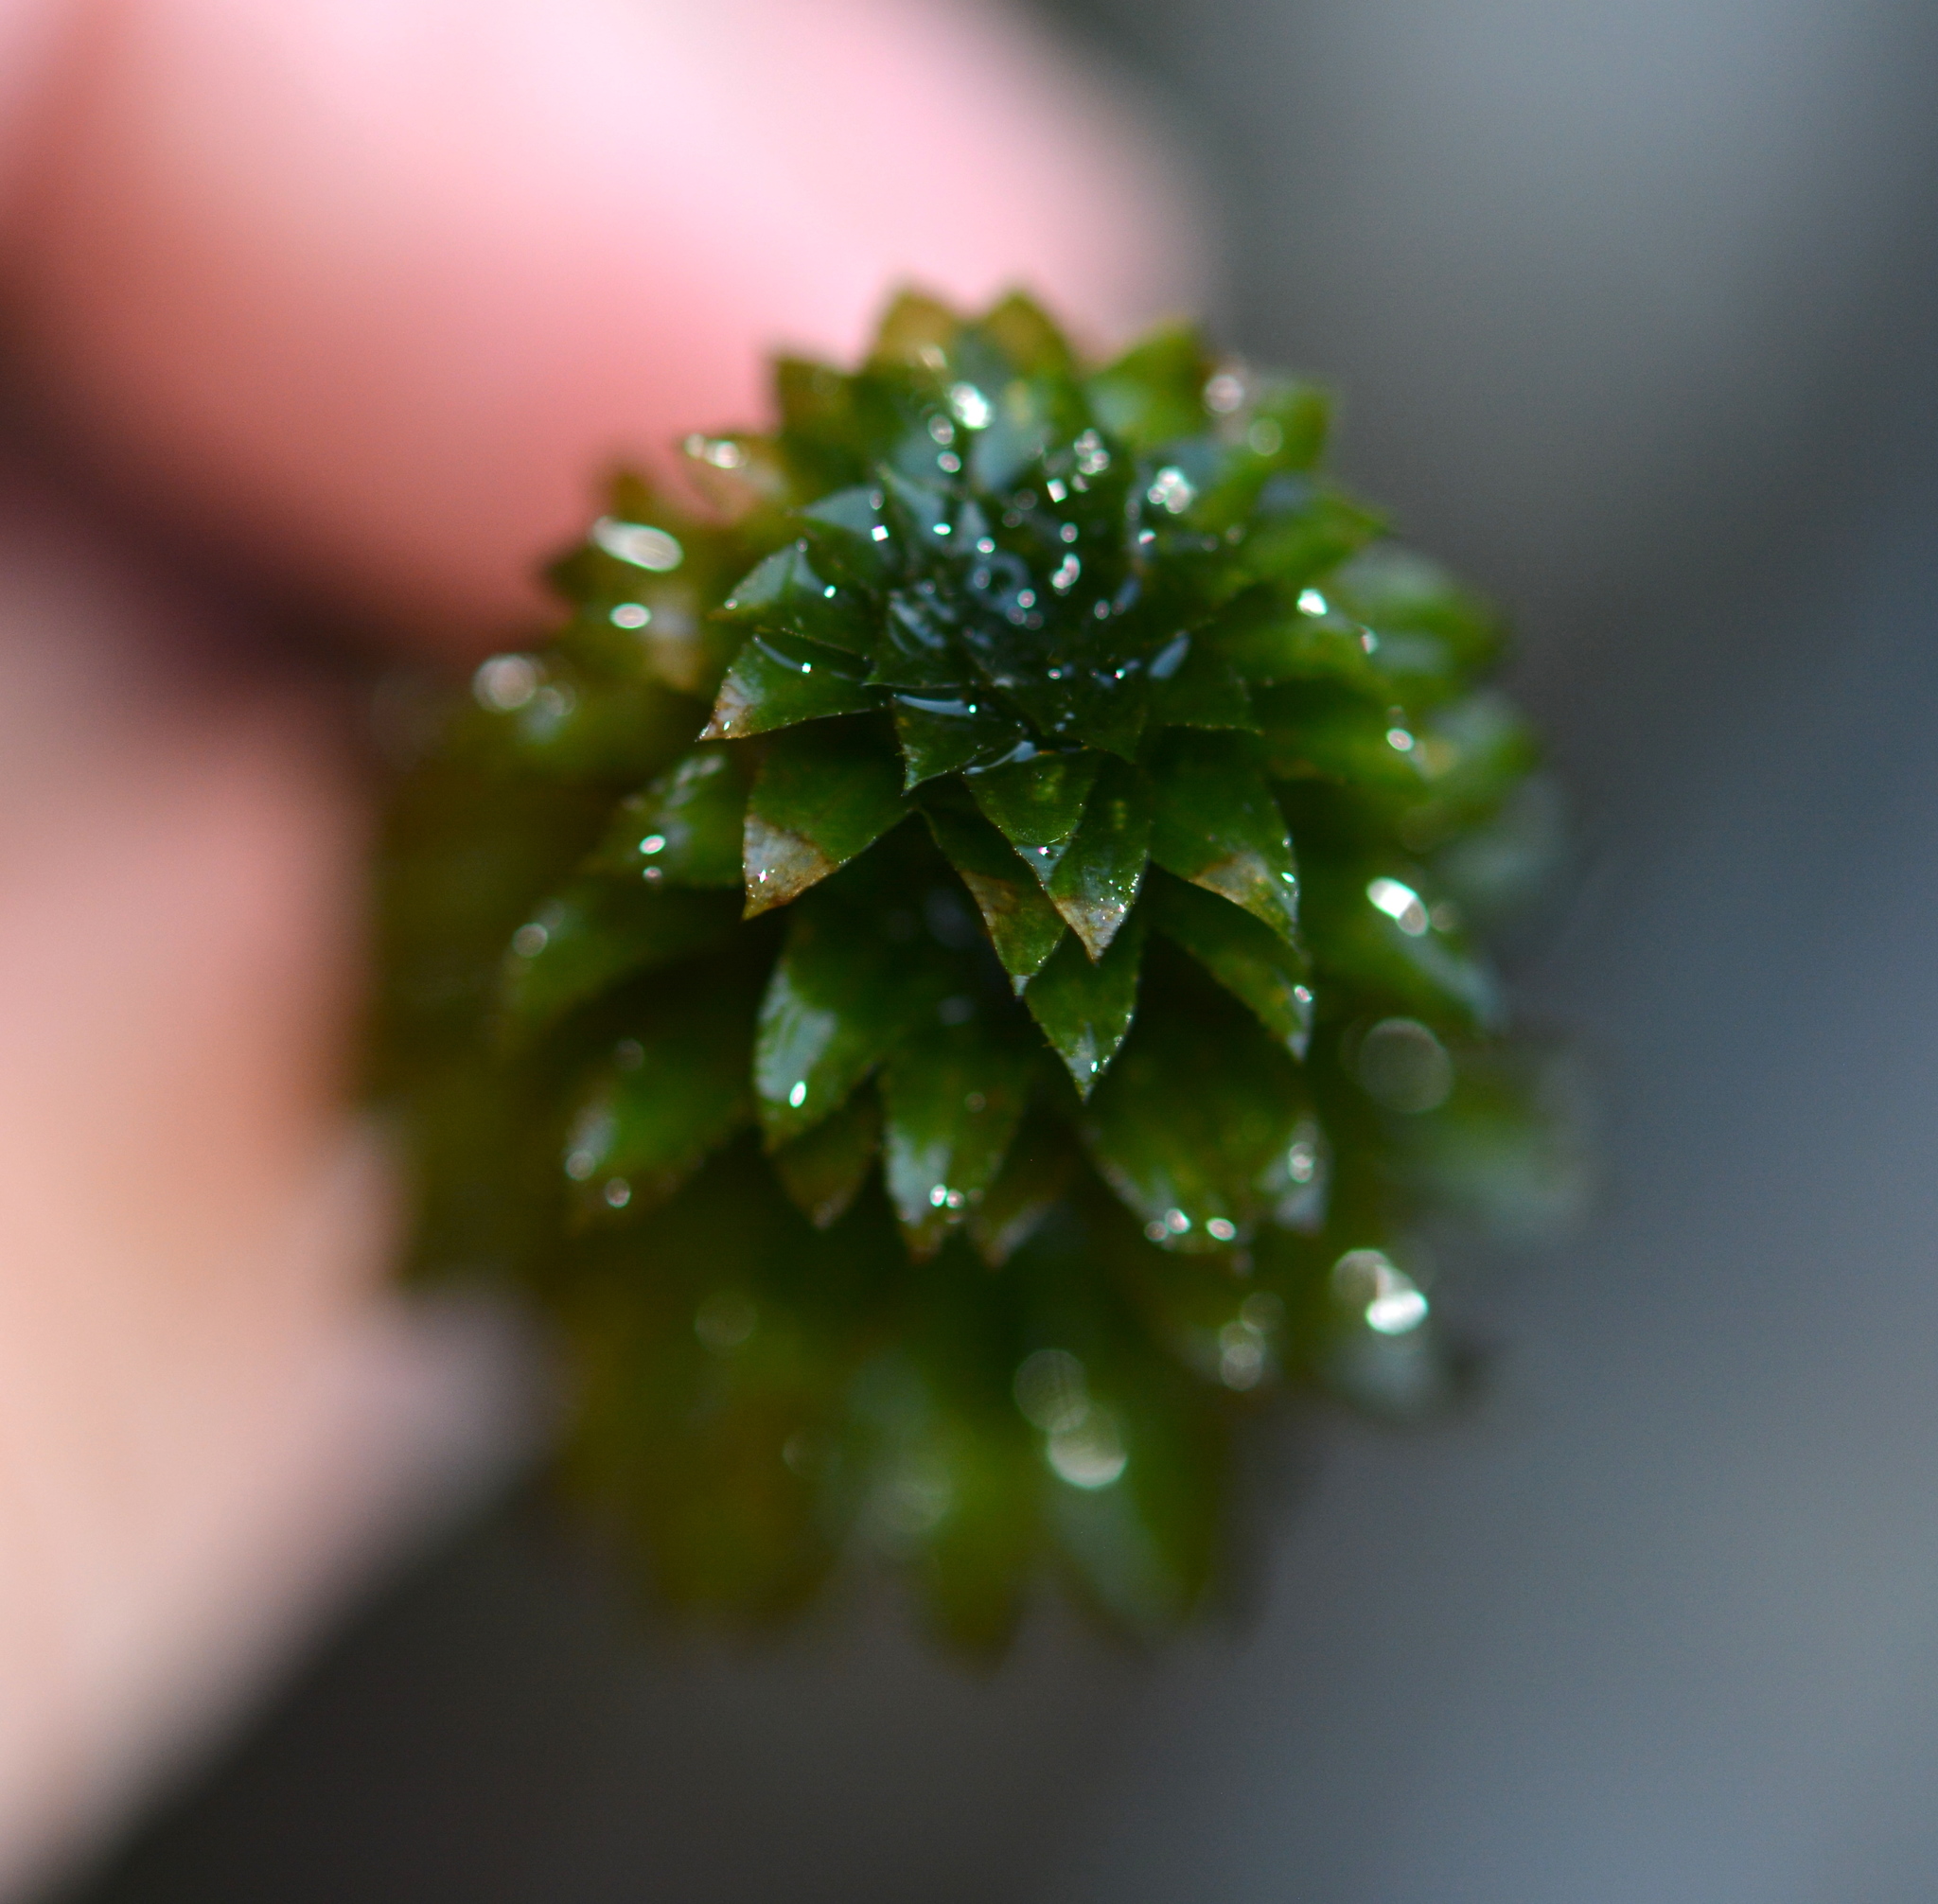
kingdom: Plantae
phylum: Tracheophyta
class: Liliopsida
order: Alismatales
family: Hydrocharitaceae
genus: Hydrilla
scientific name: Hydrilla verticillata
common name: Florida-elodea
